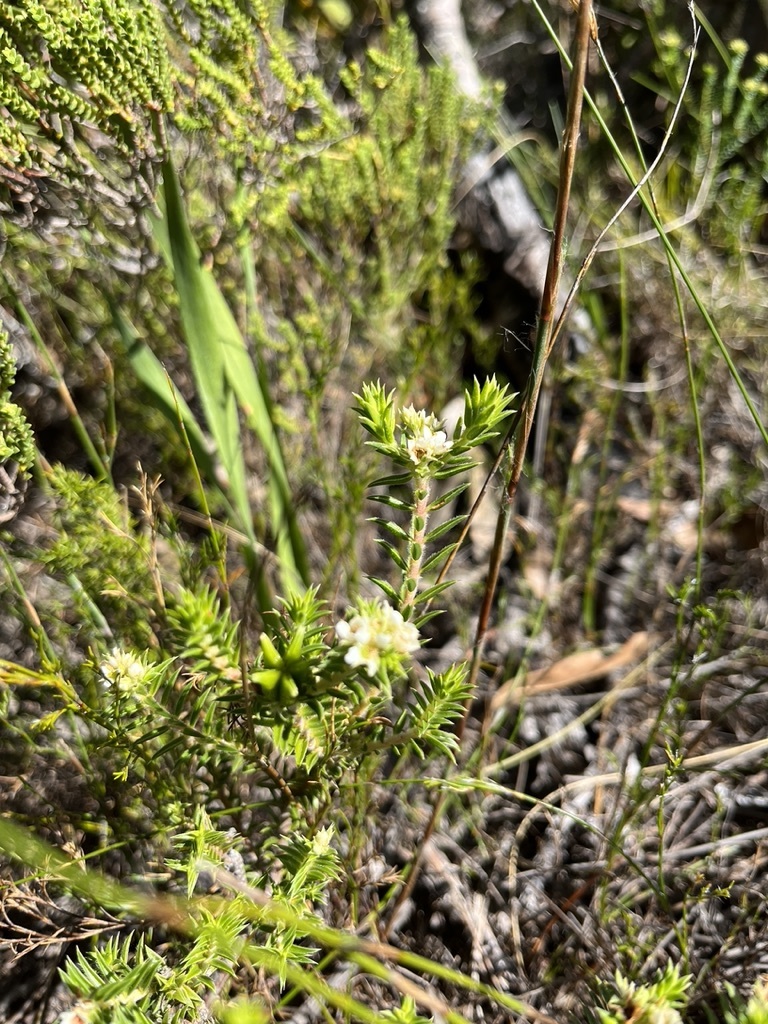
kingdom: Plantae
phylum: Tracheophyta
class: Magnoliopsida
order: Sapindales
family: Rutaceae
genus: Diosma
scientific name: Diosma subulata
